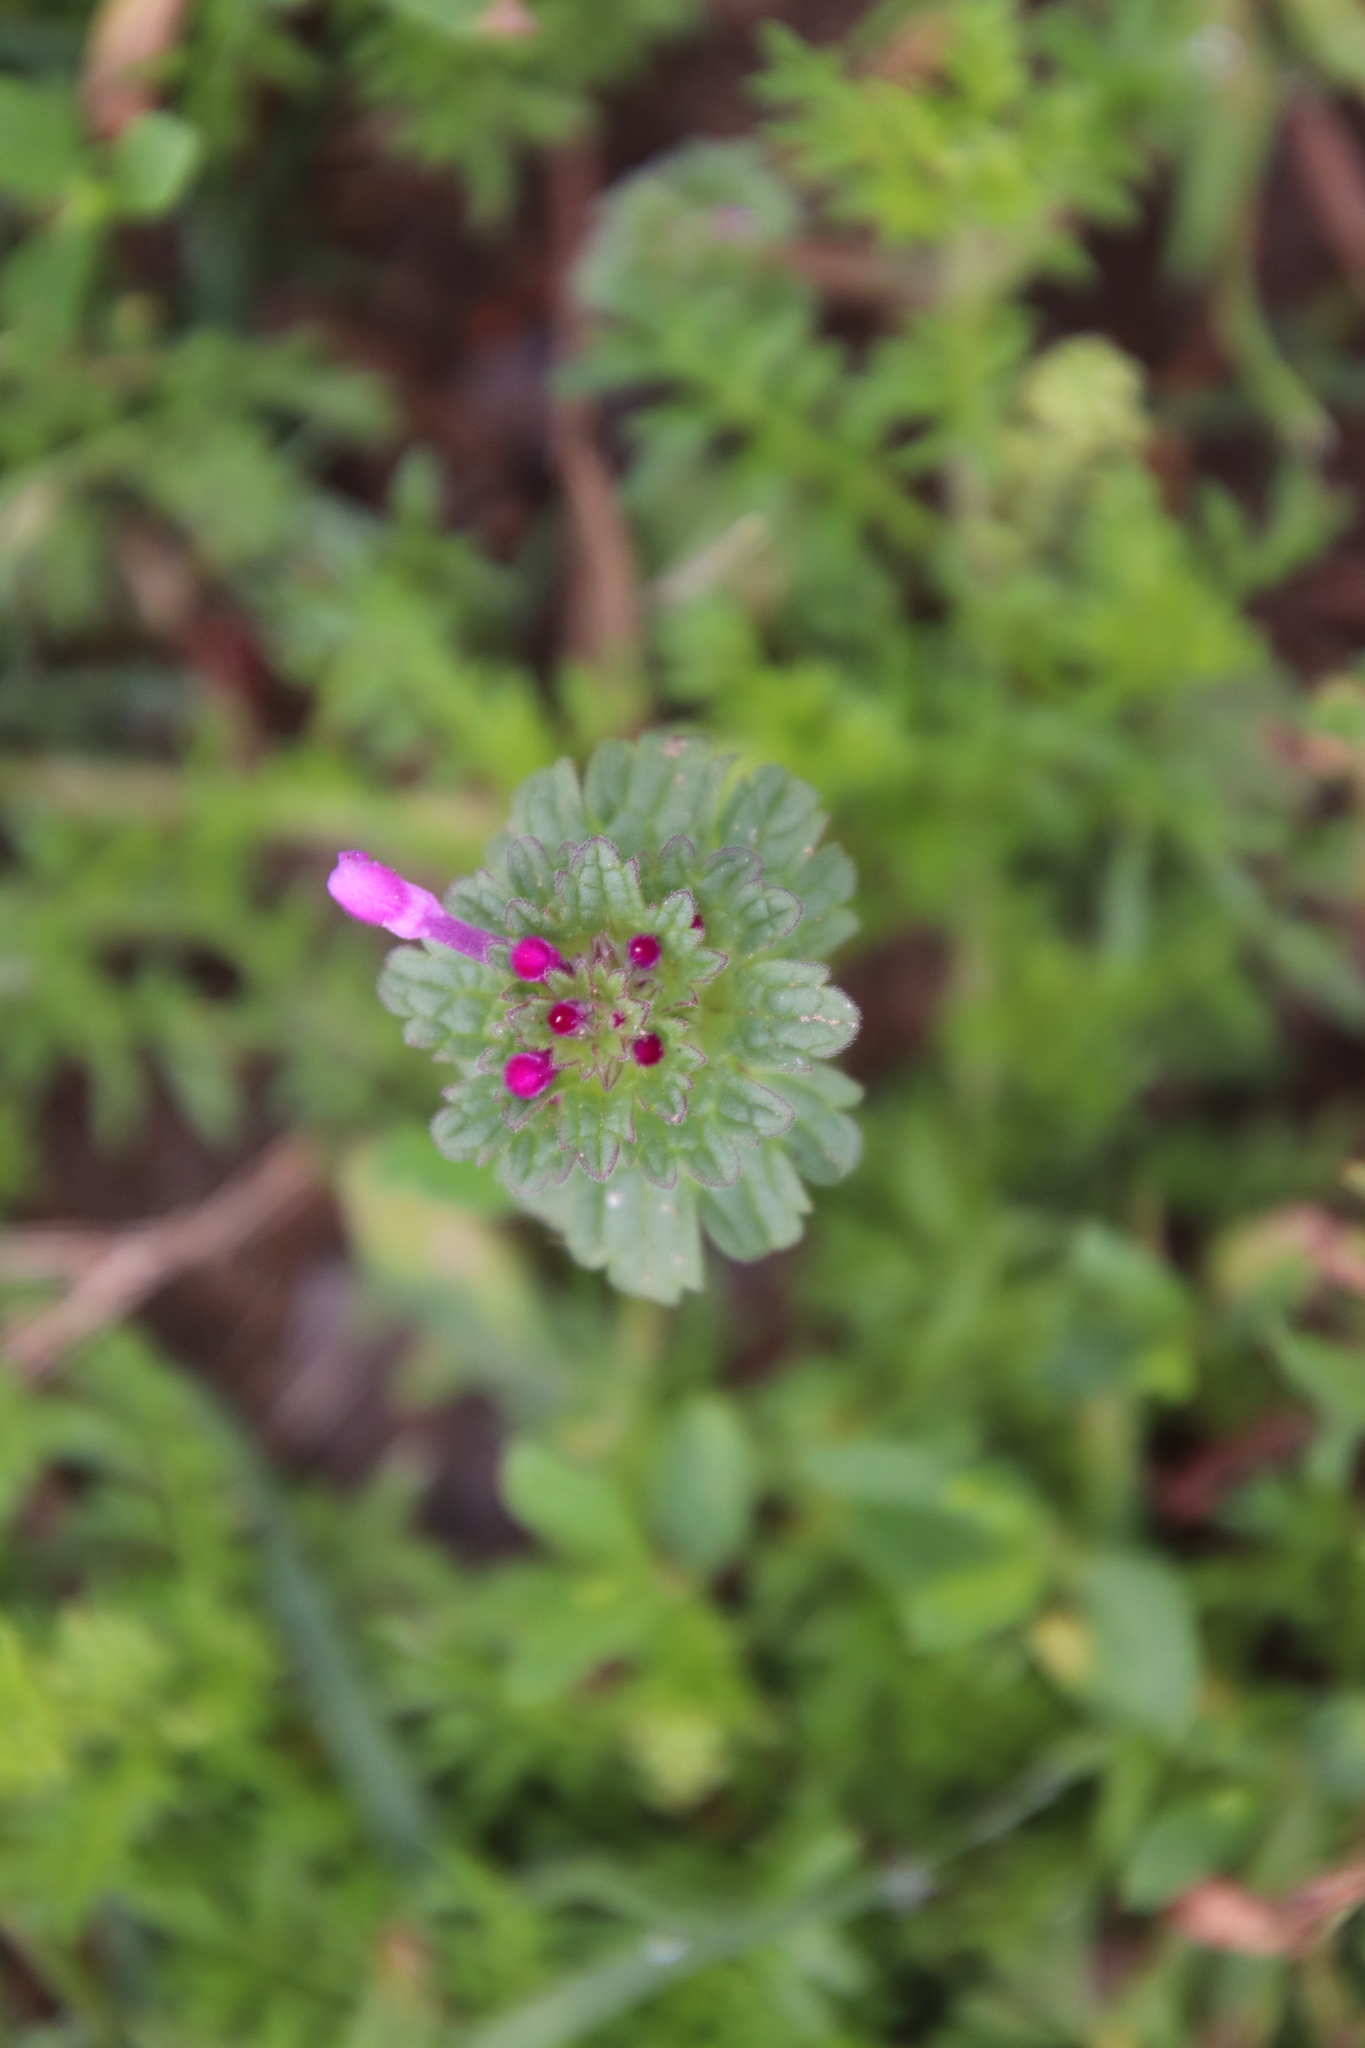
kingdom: Plantae
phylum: Tracheophyta
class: Magnoliopsida
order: Lamiales
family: Lamiaceae
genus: Lamium
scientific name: Lamium amplexicaule
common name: Henbit dead-nettle
